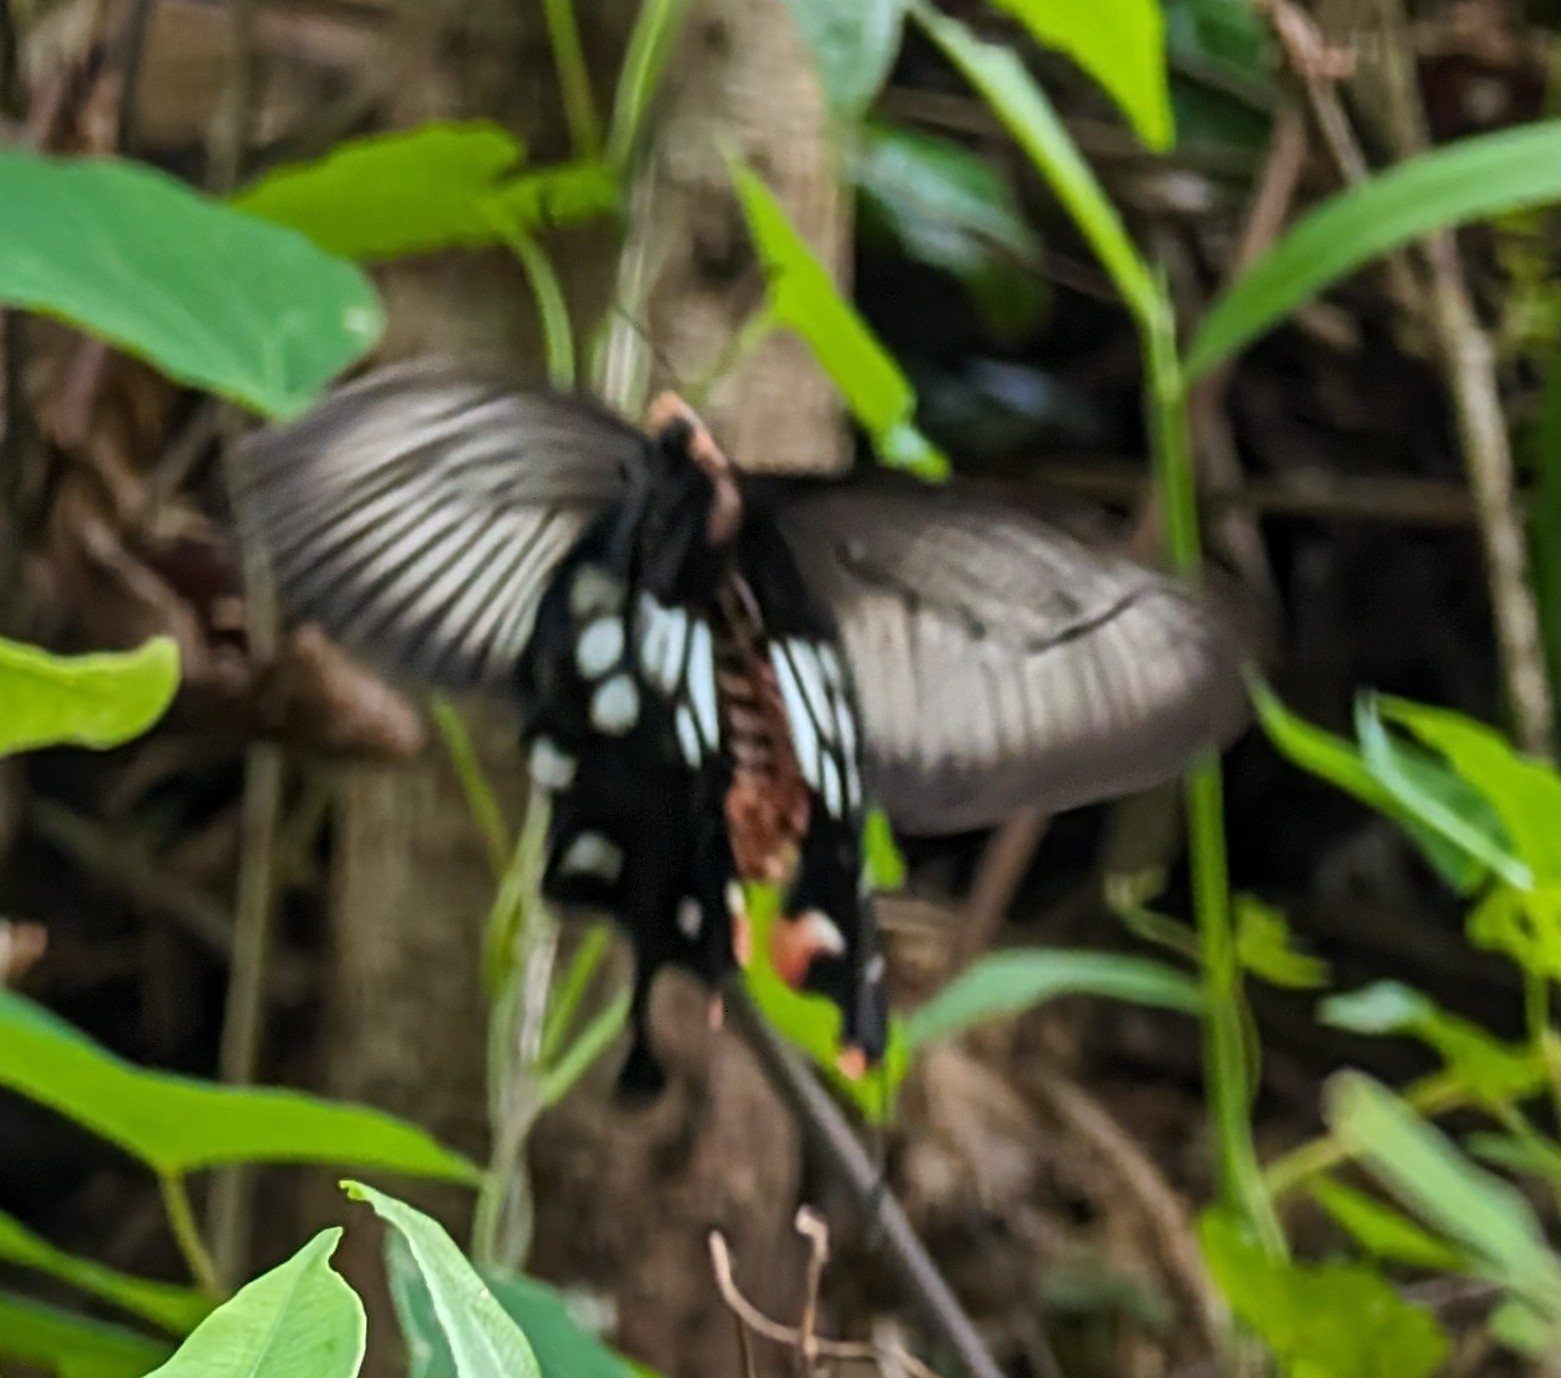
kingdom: Animalia
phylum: Arthropoda
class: Insecta
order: Lepidoptera
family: Papilionidae
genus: Losaria
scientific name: Losaria
